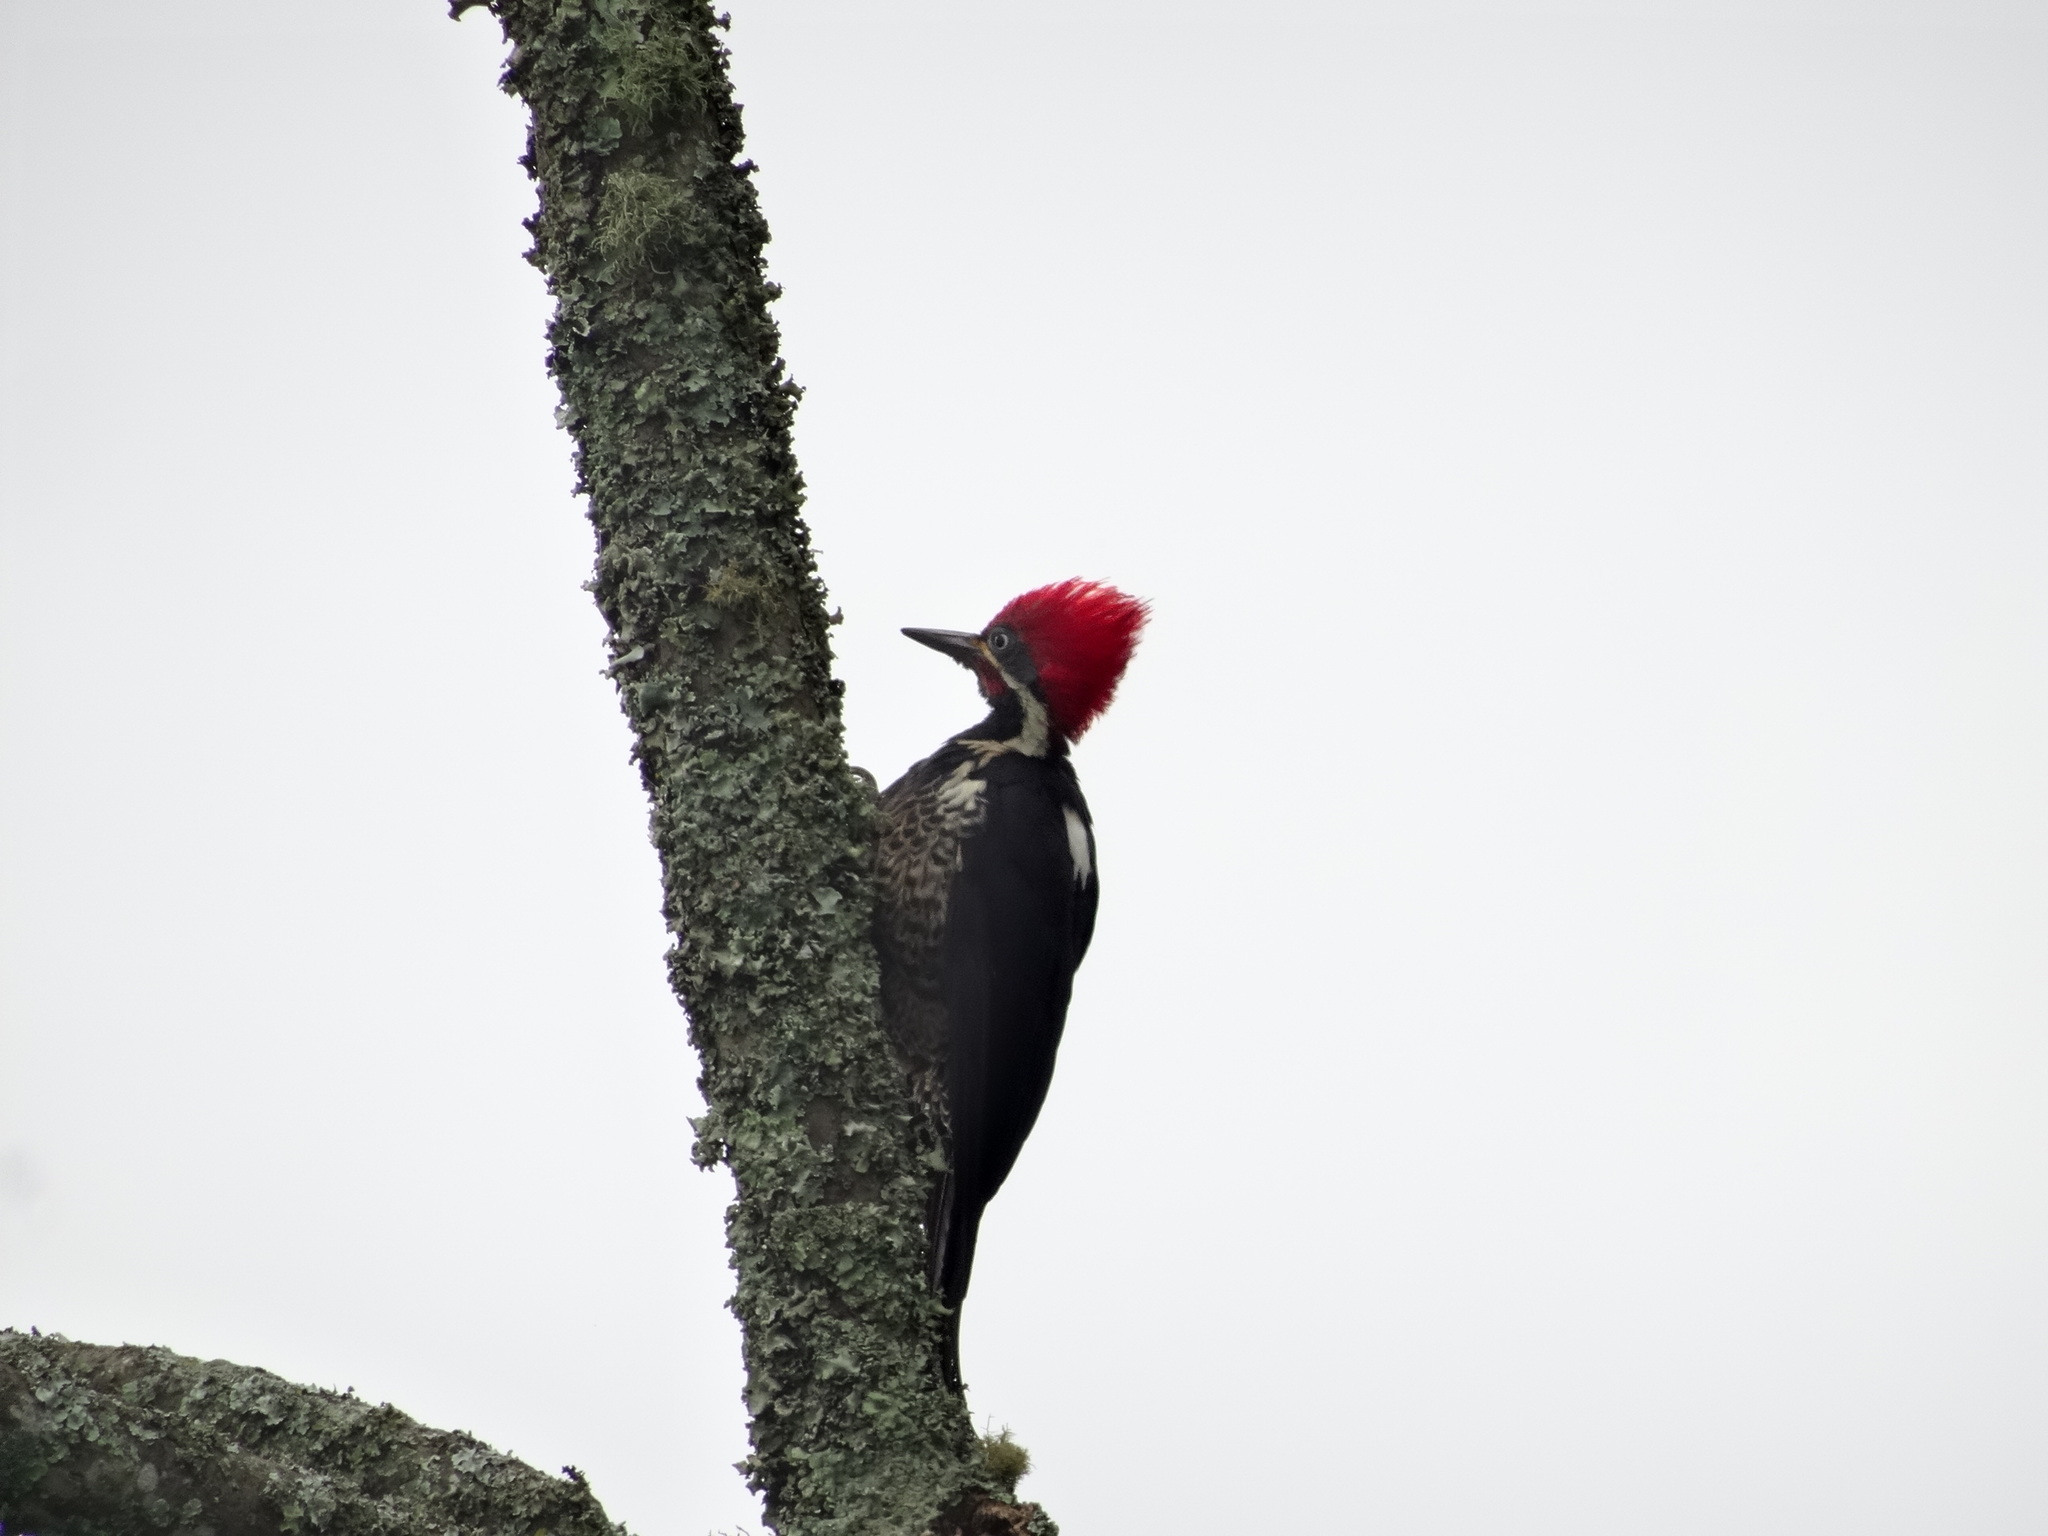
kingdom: Animalia
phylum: Chordata
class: Aves
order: Piciformes
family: Picidae
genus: Dryocopus
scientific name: Dryocopus lineatus
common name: Lineated woodpecker
